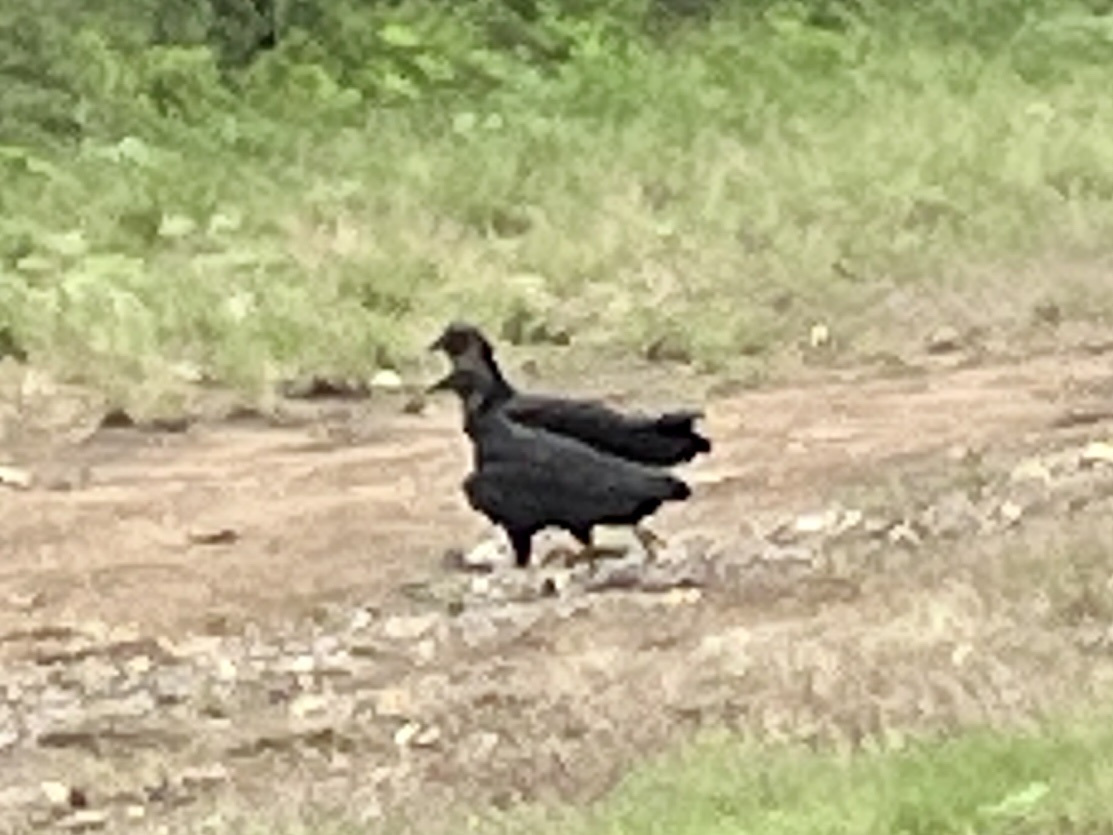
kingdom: Animalia
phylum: Chordata
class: Aves
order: Accipitriformes
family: Cathartidae
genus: Coragyps
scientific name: Coragyps atratus
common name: Black vulture
